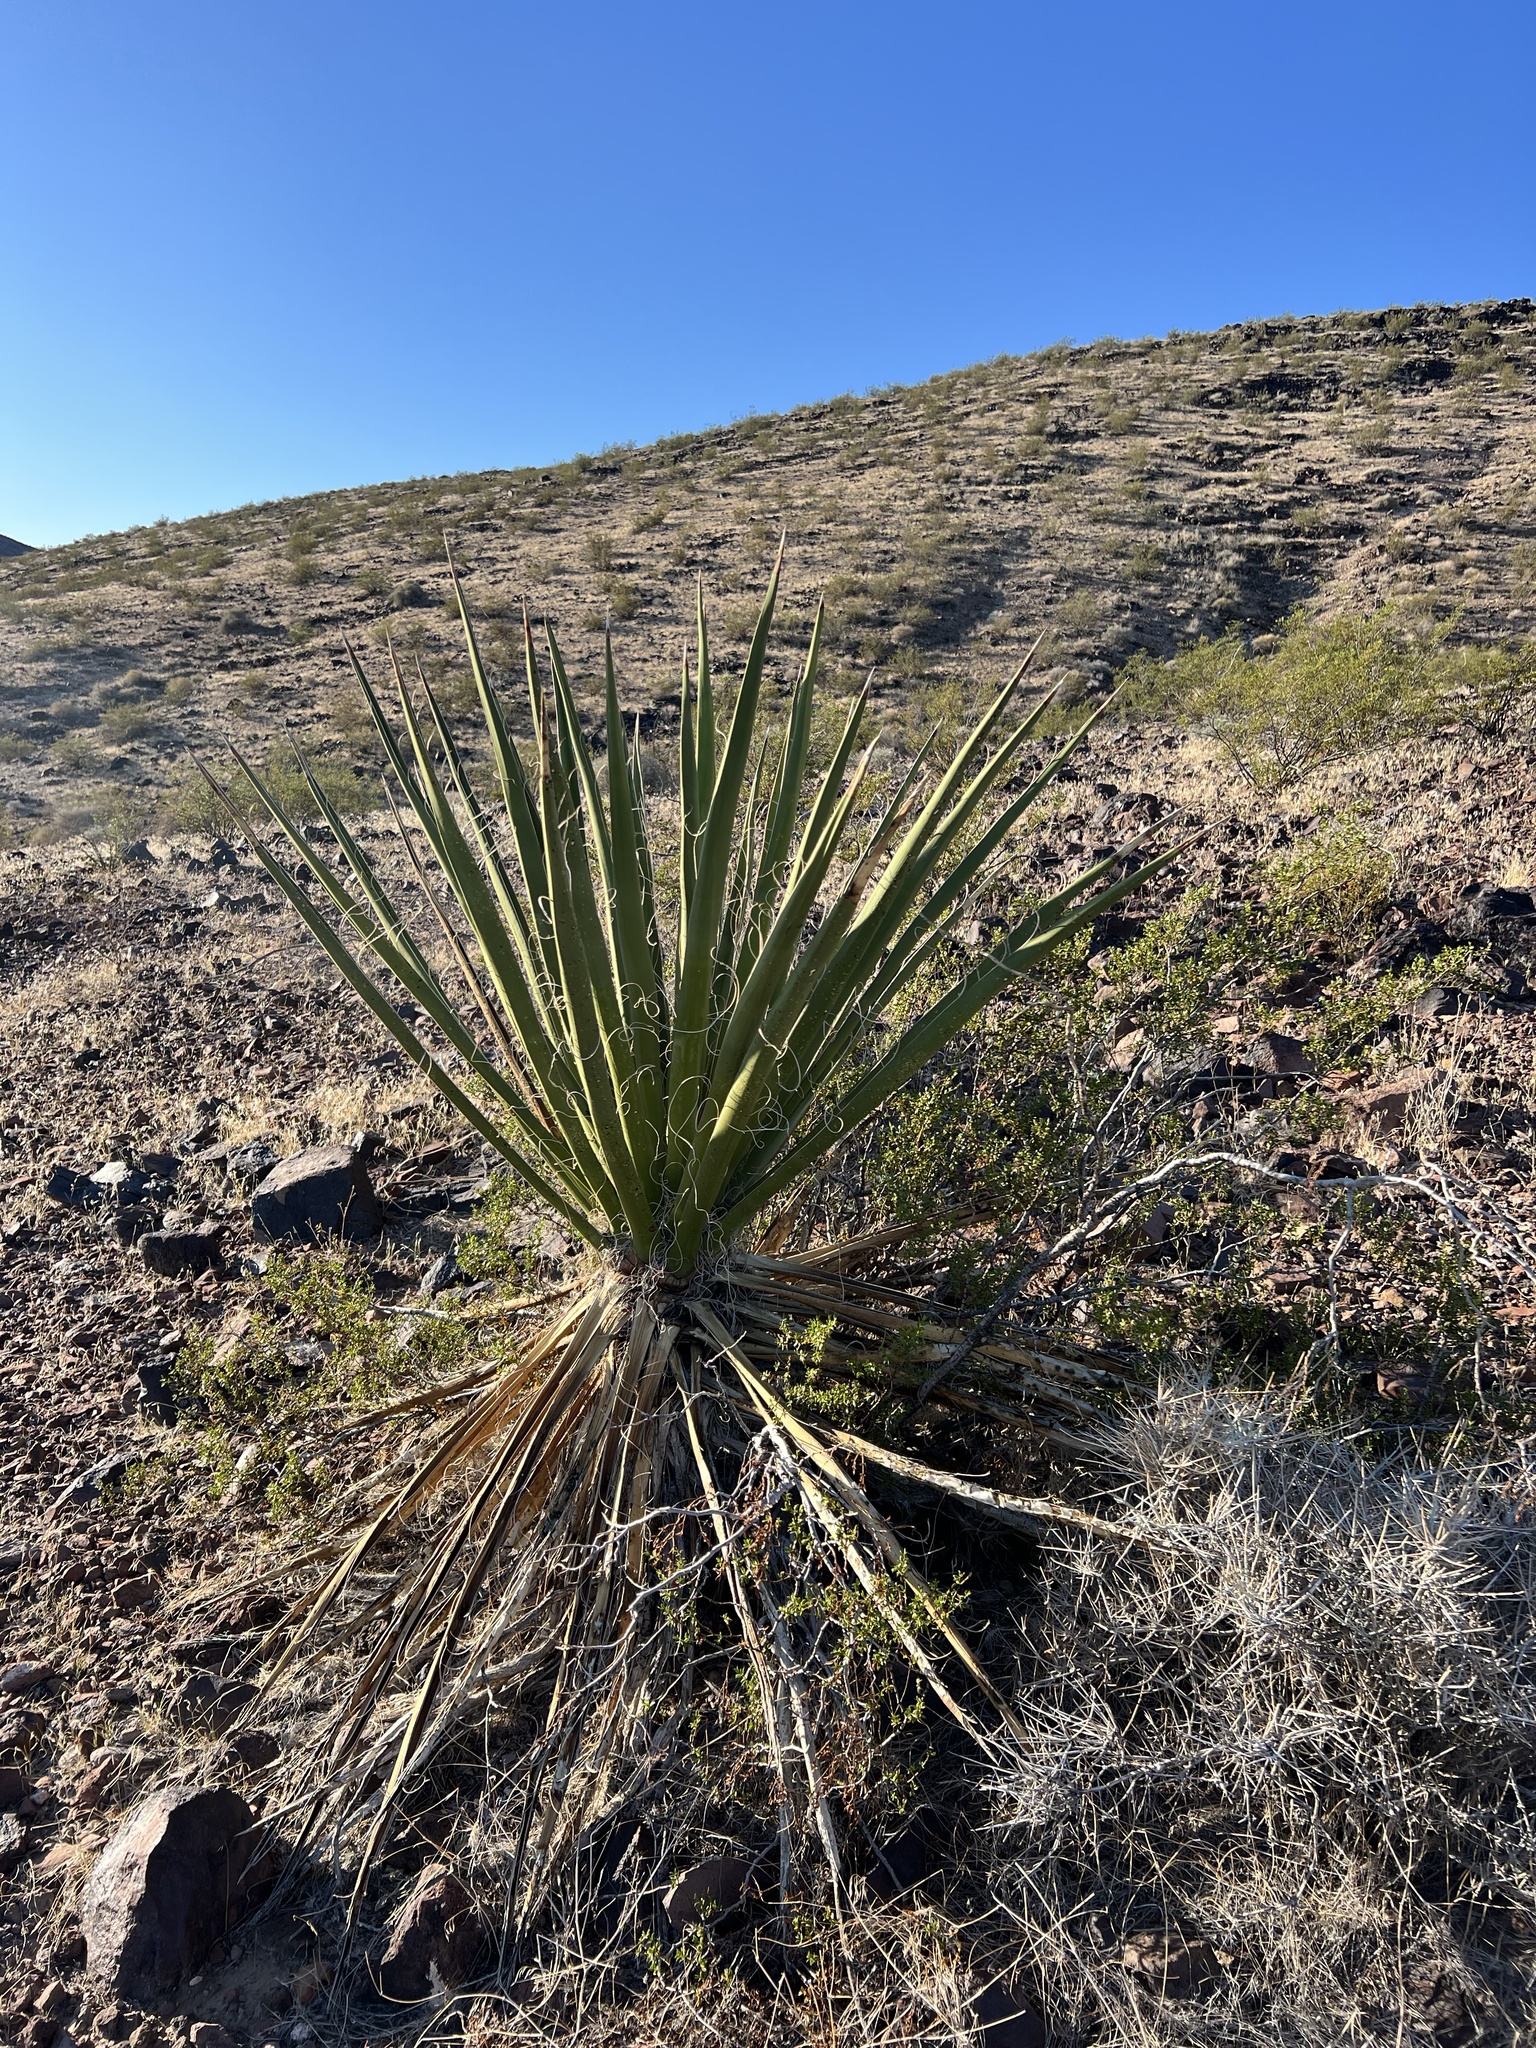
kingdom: Plantae
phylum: Tracheophyta
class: Liliopsida
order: Asparagales
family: Asparagaceae
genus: Yucca
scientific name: Yucca schidigera
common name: Mojave yucca
